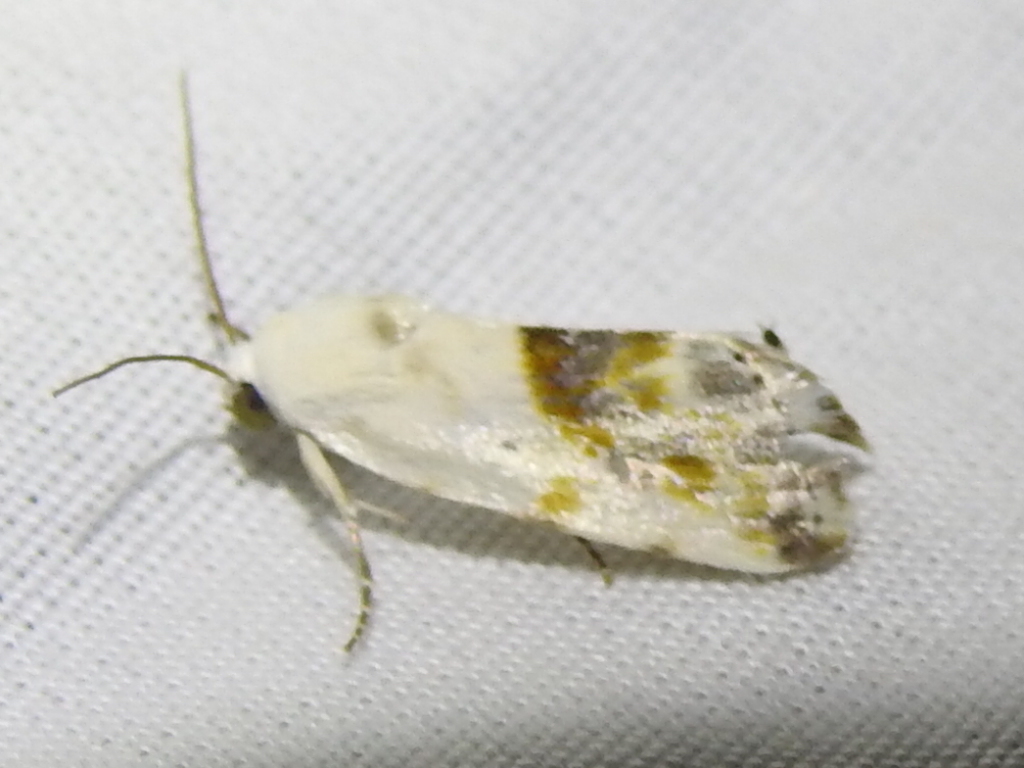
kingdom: Animalia
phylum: Arthropoda
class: Insecta
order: Lepidoptera
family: Noctuidae
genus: Acontia
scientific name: Acontia candefacta
